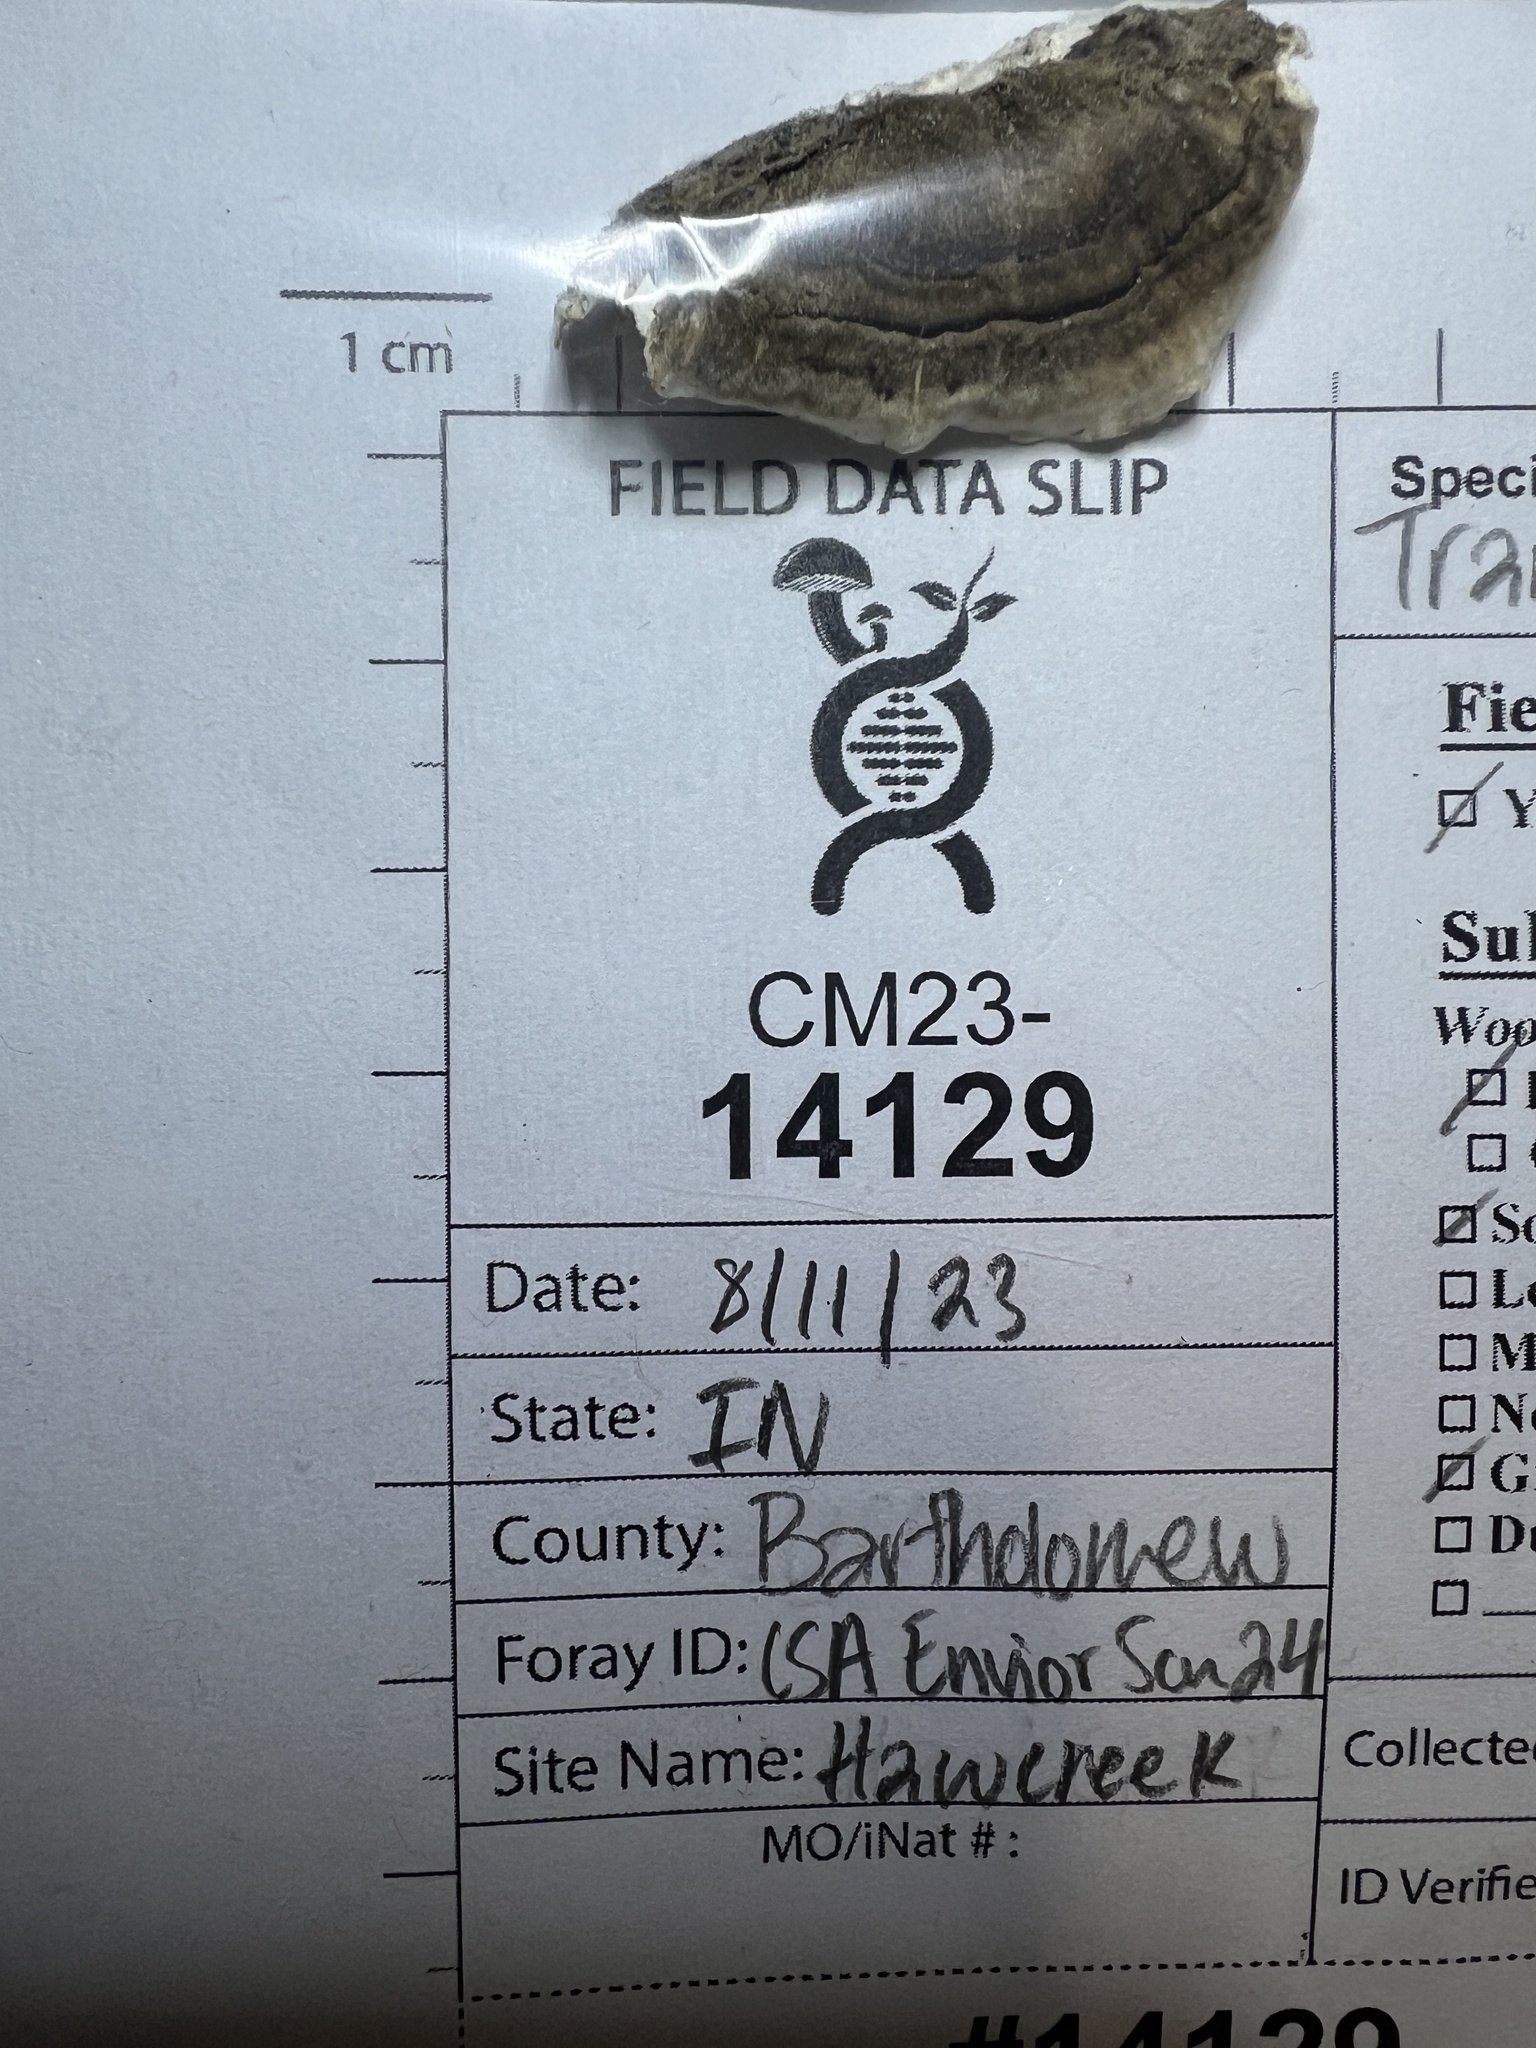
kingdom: Fungi
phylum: Basidiomycota
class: Agaricomycetes
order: Polyporales
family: Polyporaceae
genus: Trametes
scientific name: Trametes versicolor
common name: Turkeytail
